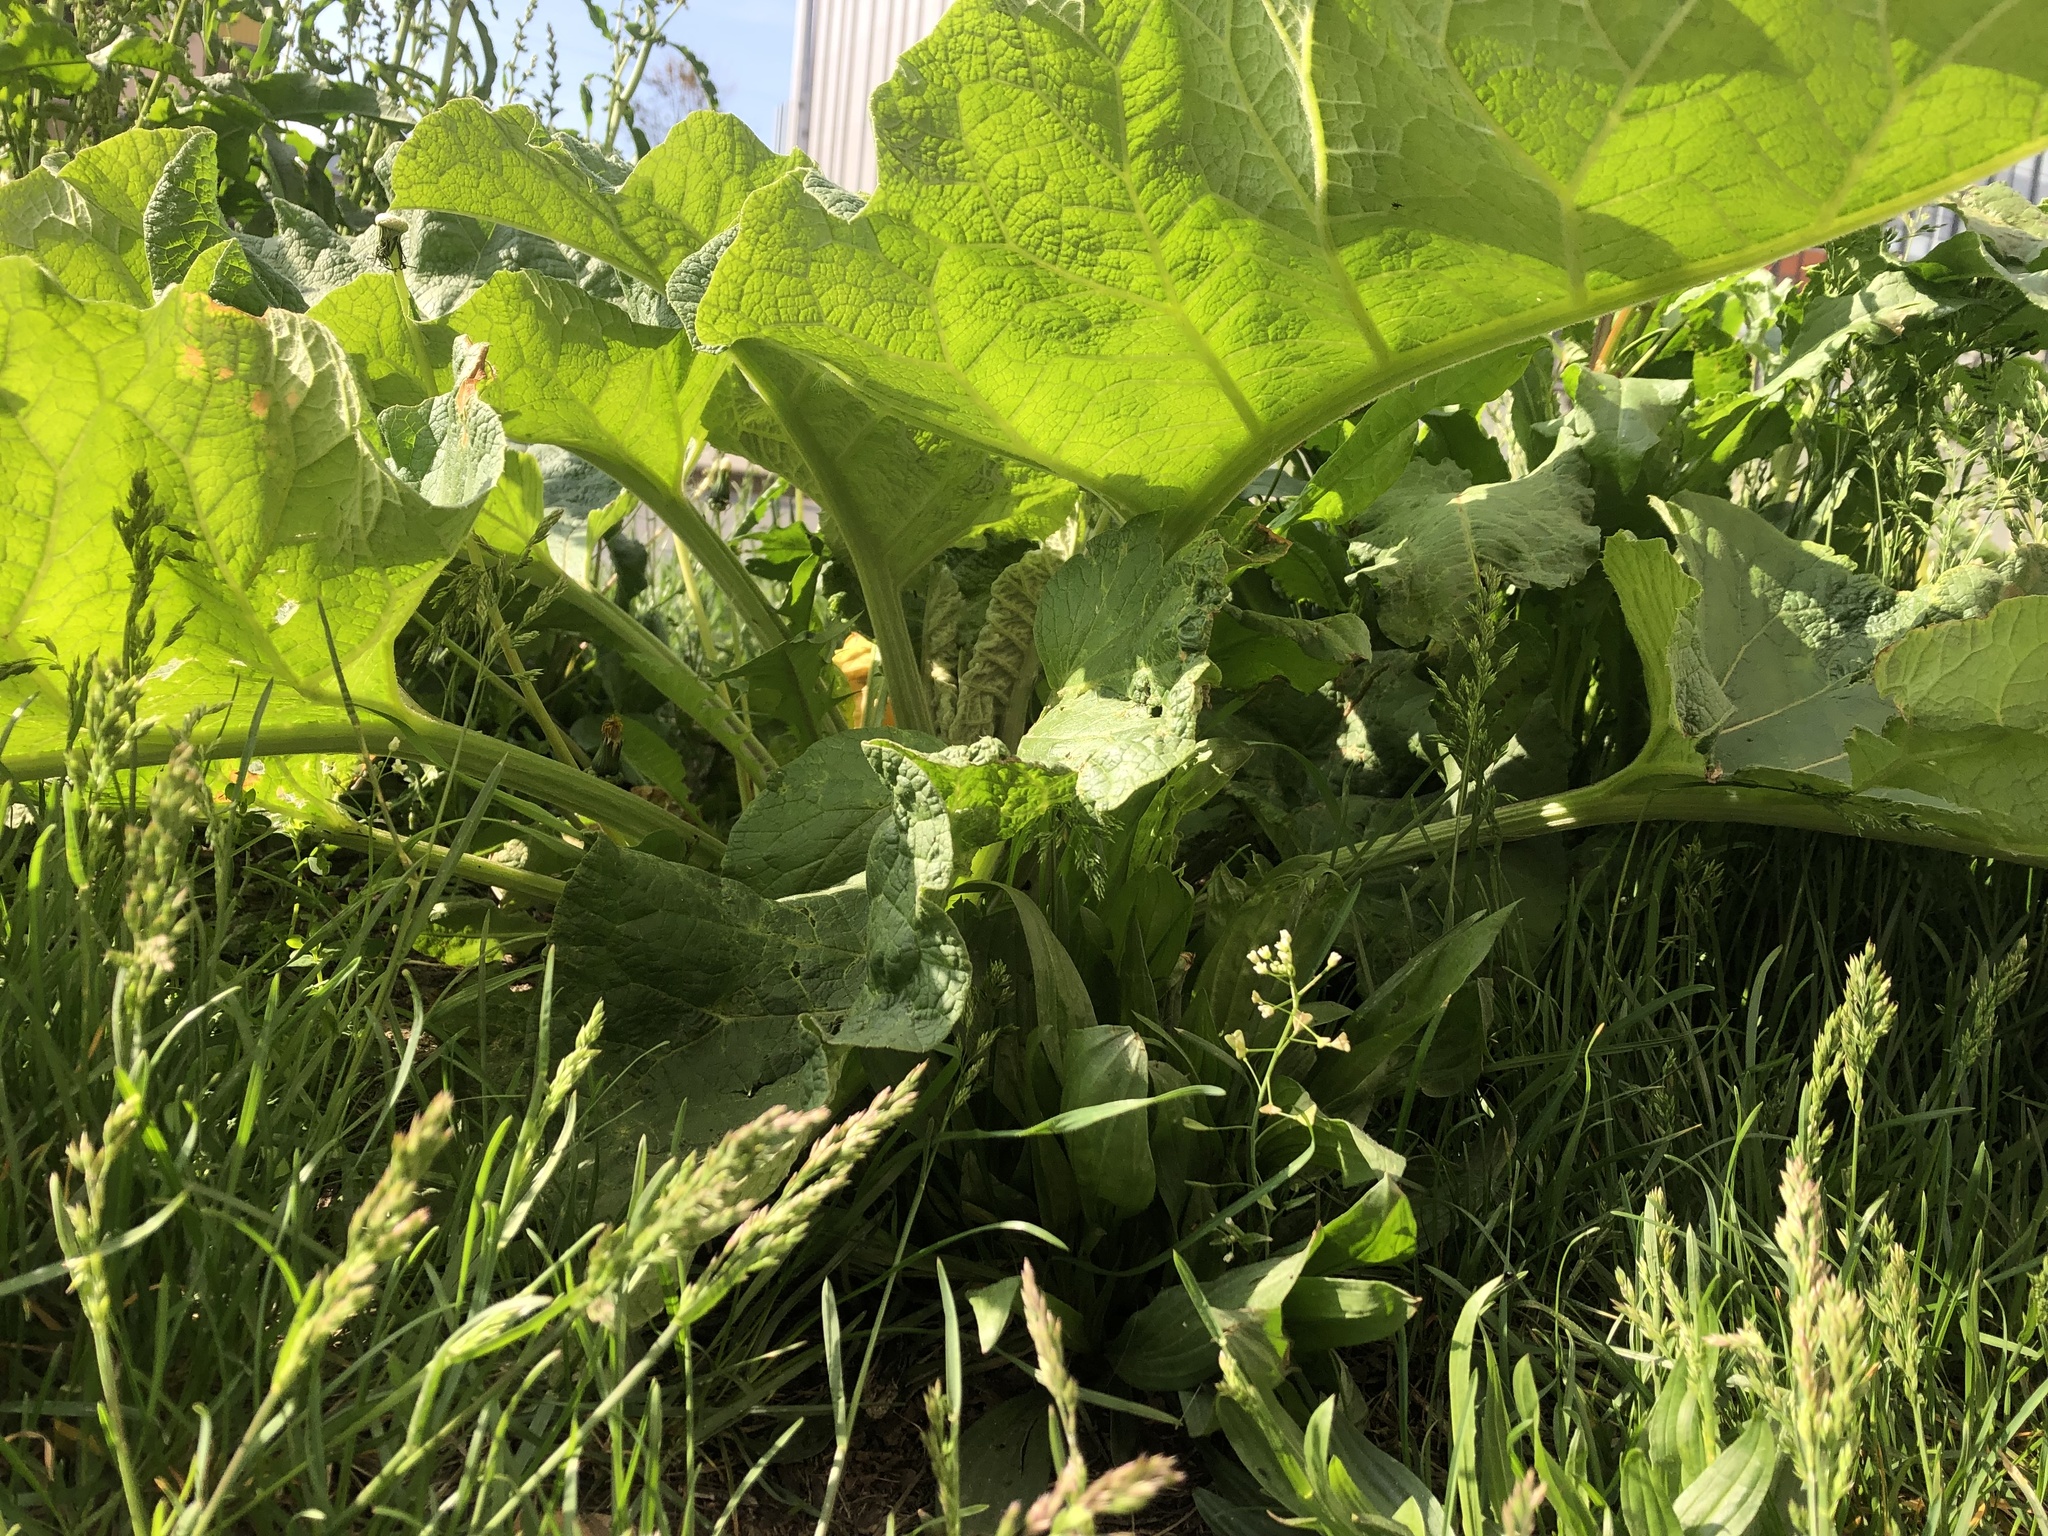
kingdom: Plantae
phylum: Tracheophyta
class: Magnoliopsida
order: Asterales
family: Asteraceae
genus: Arctium
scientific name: Arctium
